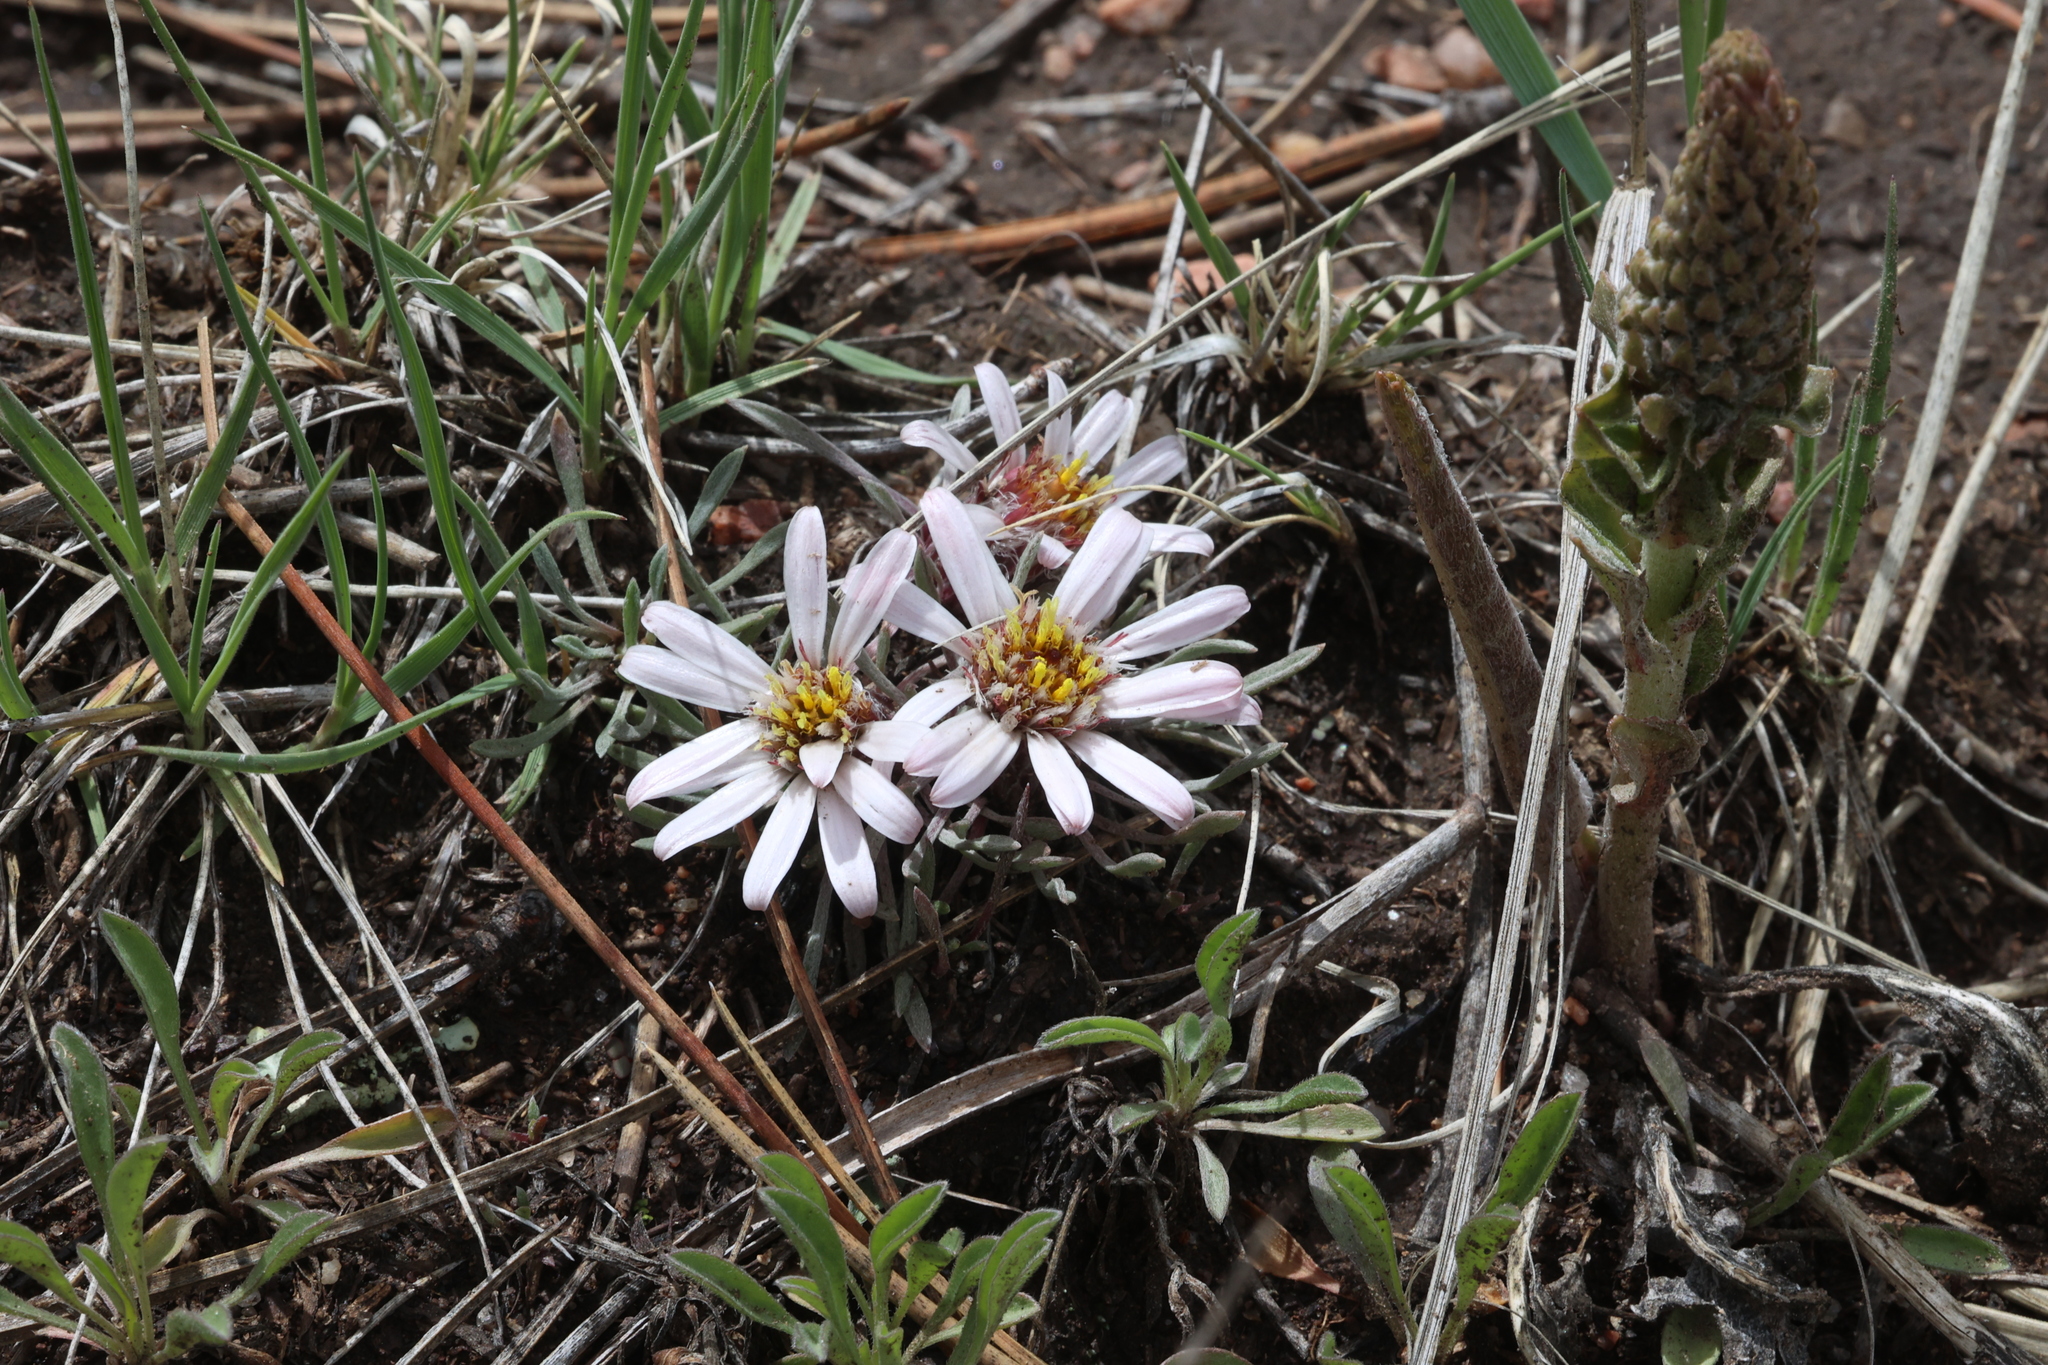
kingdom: Plantae
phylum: Tracheophyta
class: Magnoliopsida
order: Asterales
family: Asteraceae
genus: Townsendia
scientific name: Townsendia exscapa
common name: Dwarf townsendia
